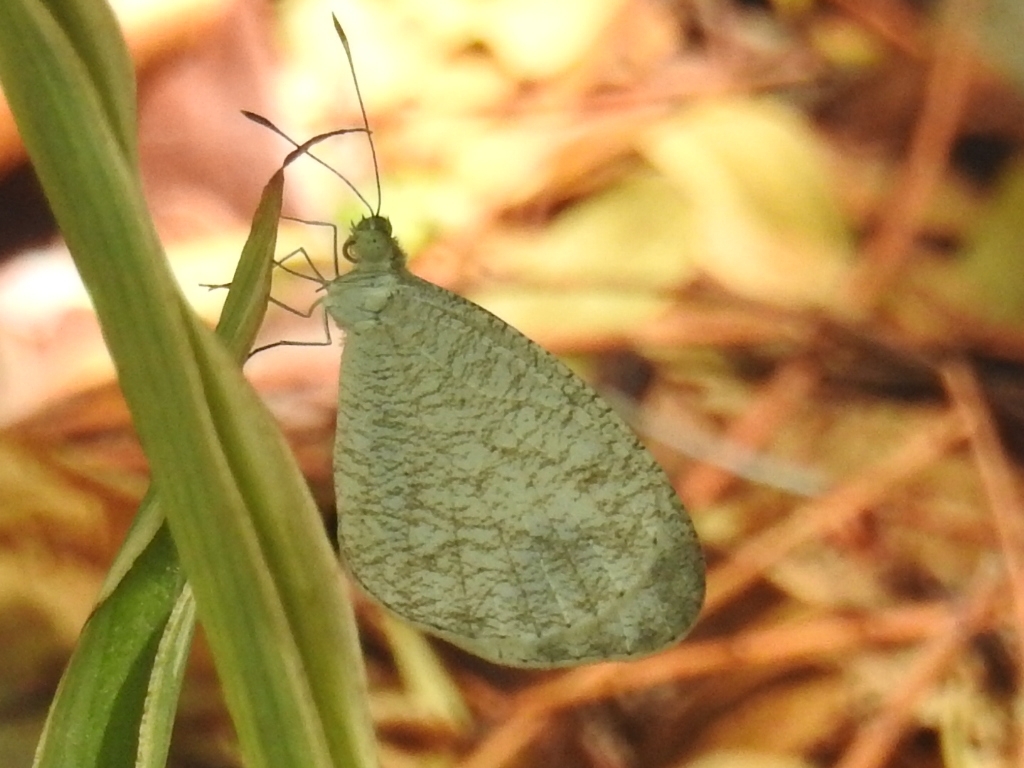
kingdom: Animalia
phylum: Arthropoda
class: Insecta
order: Lepidoptera
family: Pieridae
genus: Leptosia
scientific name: Leptosia nina
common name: Psyche
